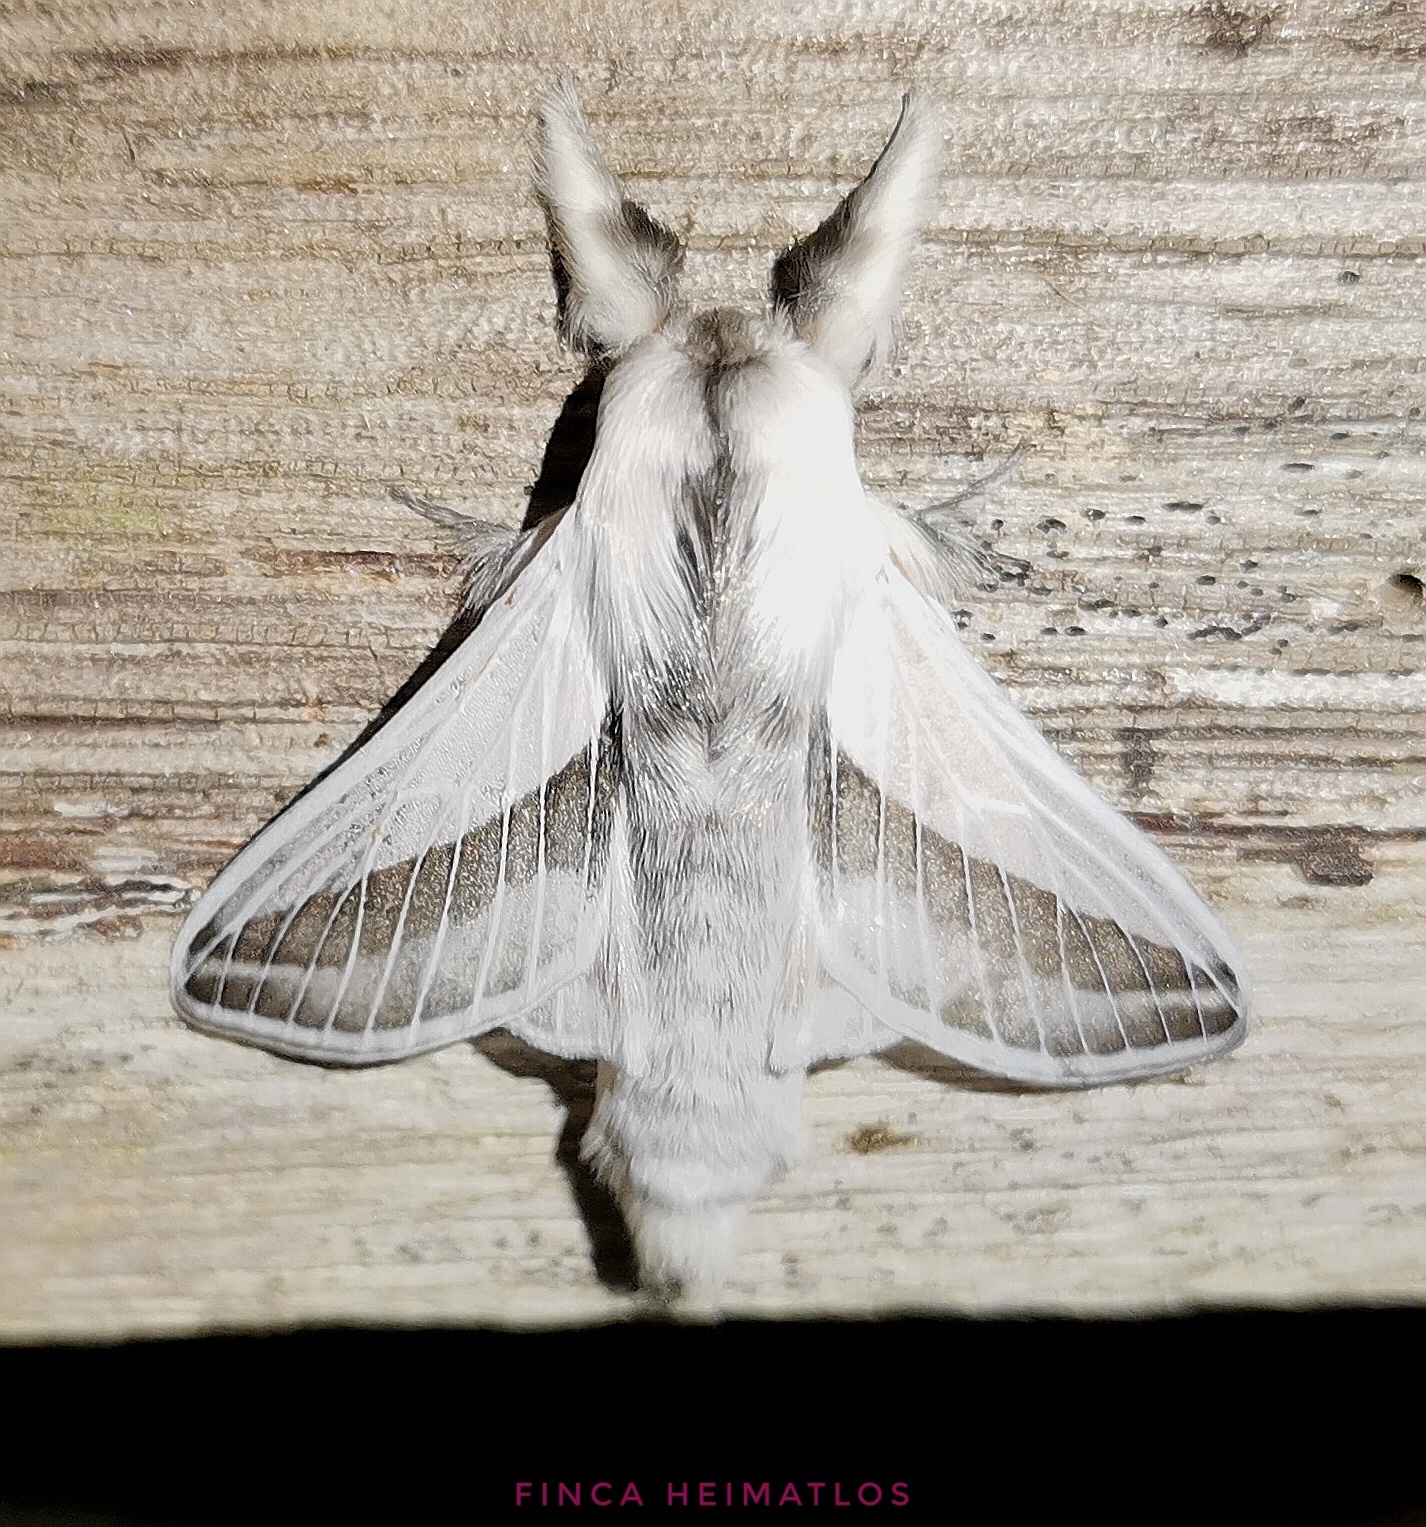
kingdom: Animalia
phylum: Arthropoda
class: Insecta
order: Lepidoptera
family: Lasiocampidae
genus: Titya
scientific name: Titya noctilux
